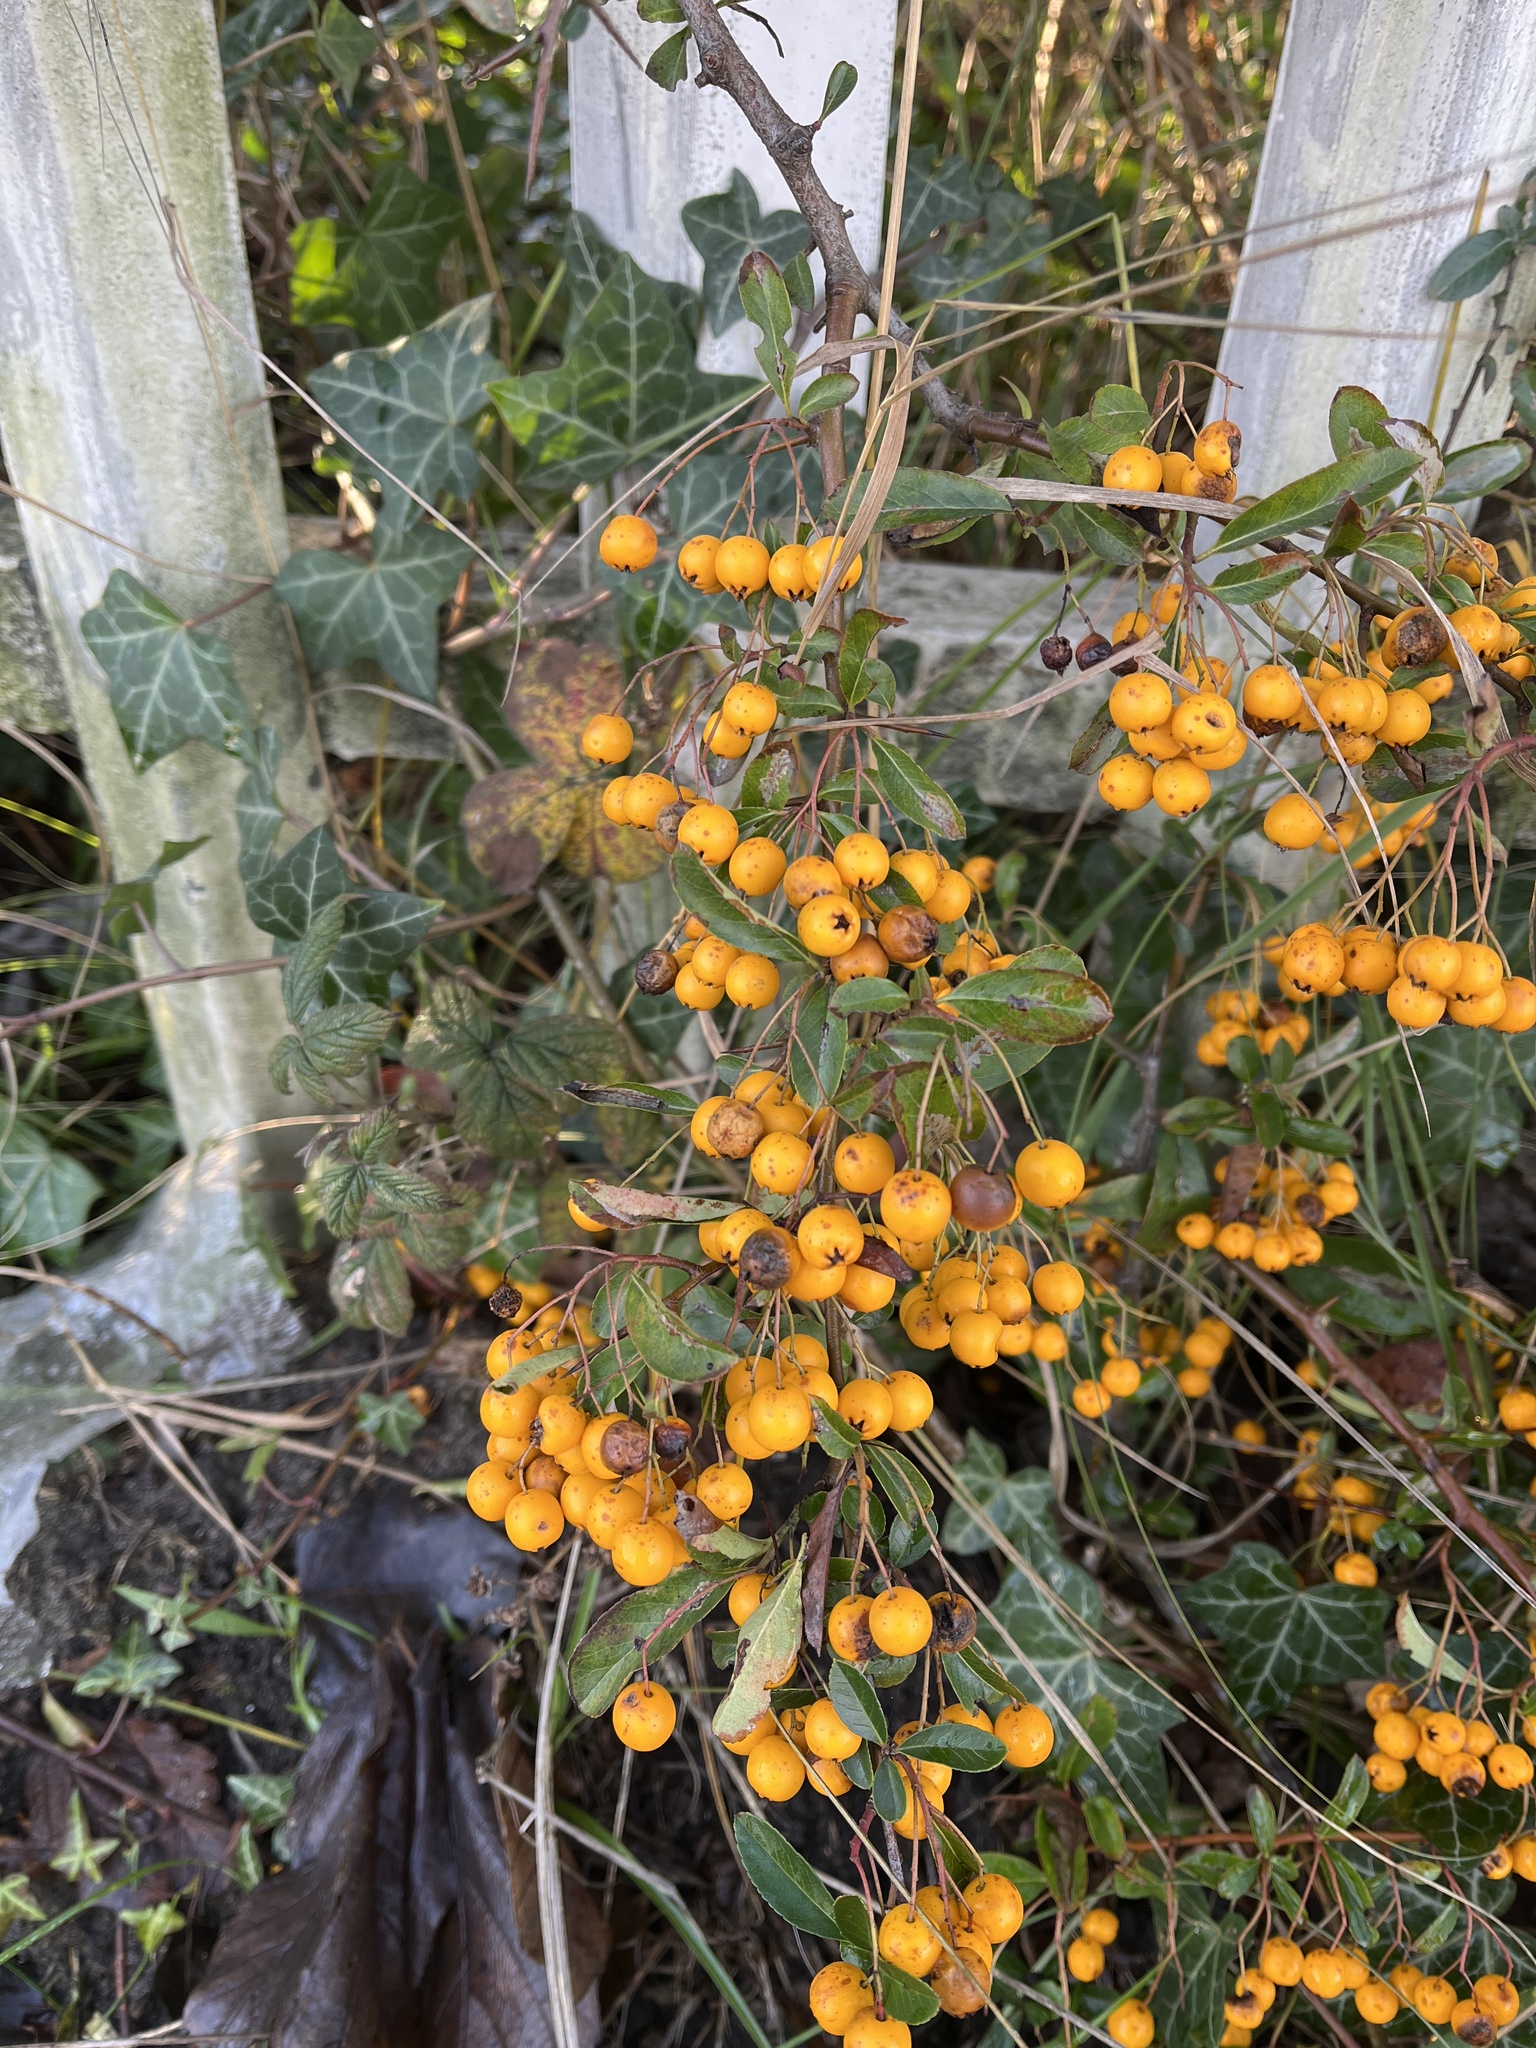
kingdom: Plantae
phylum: Tracheophyta
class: Magnoliopsida
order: Rosales
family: Rosaceae
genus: Pyracantha
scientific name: Pyracantha coccinea
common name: Firethorn
